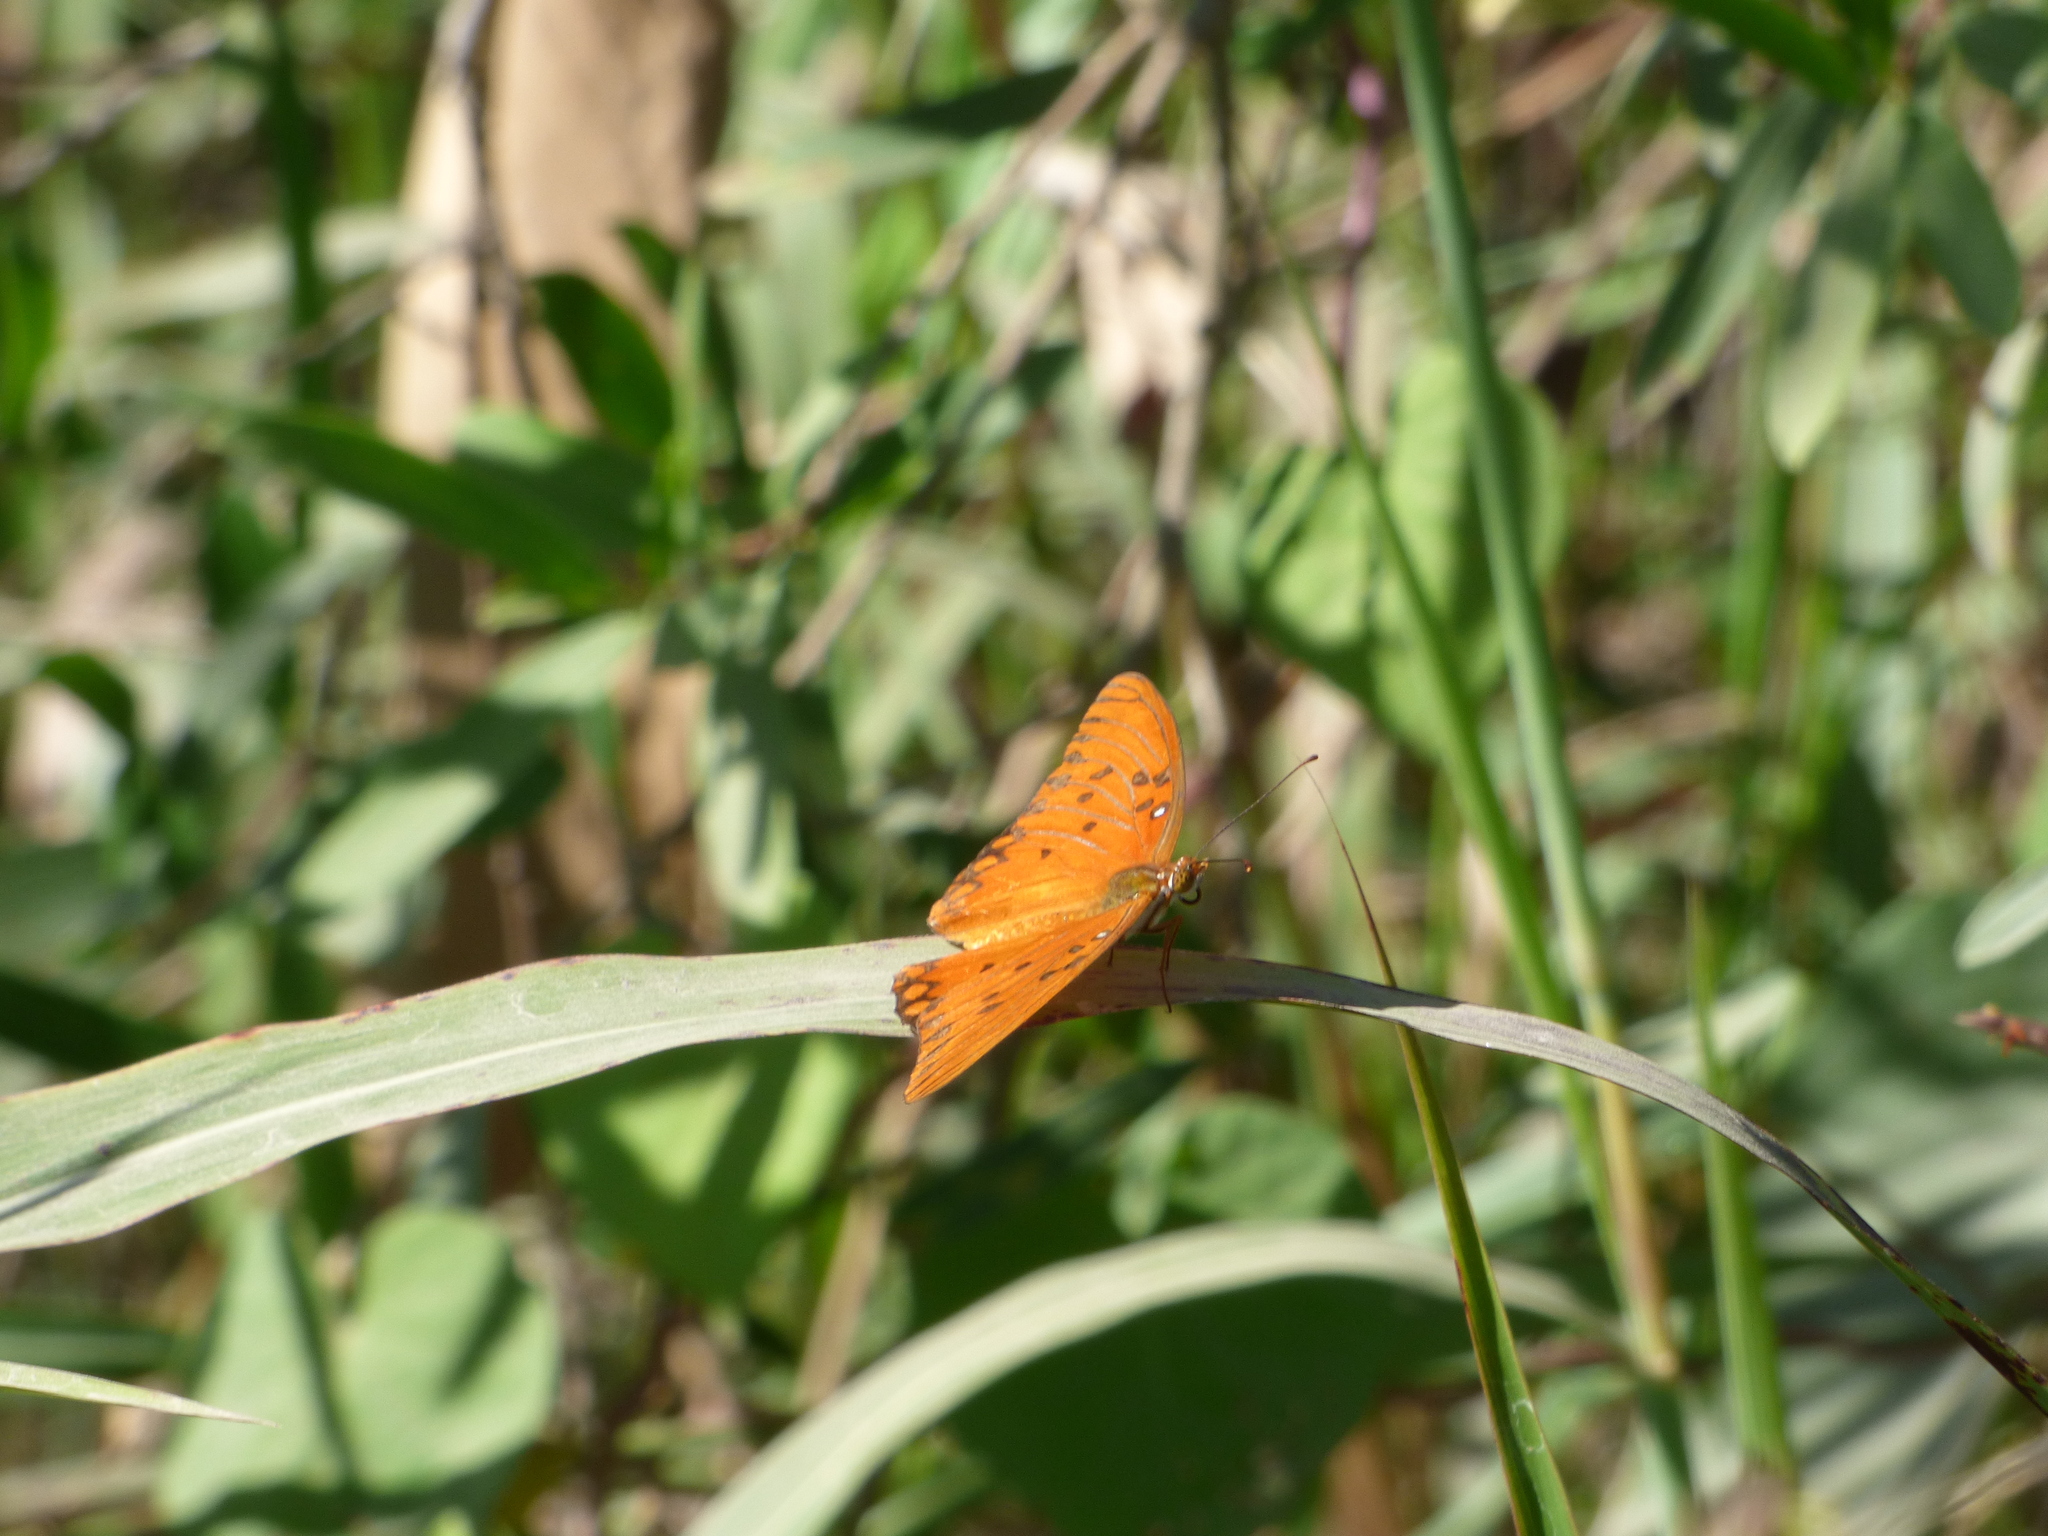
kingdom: Animalia
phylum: Arthropoda
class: Insecta
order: Lepidoptera
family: Nymphalidae
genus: Dione
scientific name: Dione vanillae
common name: Gulf fritillary
